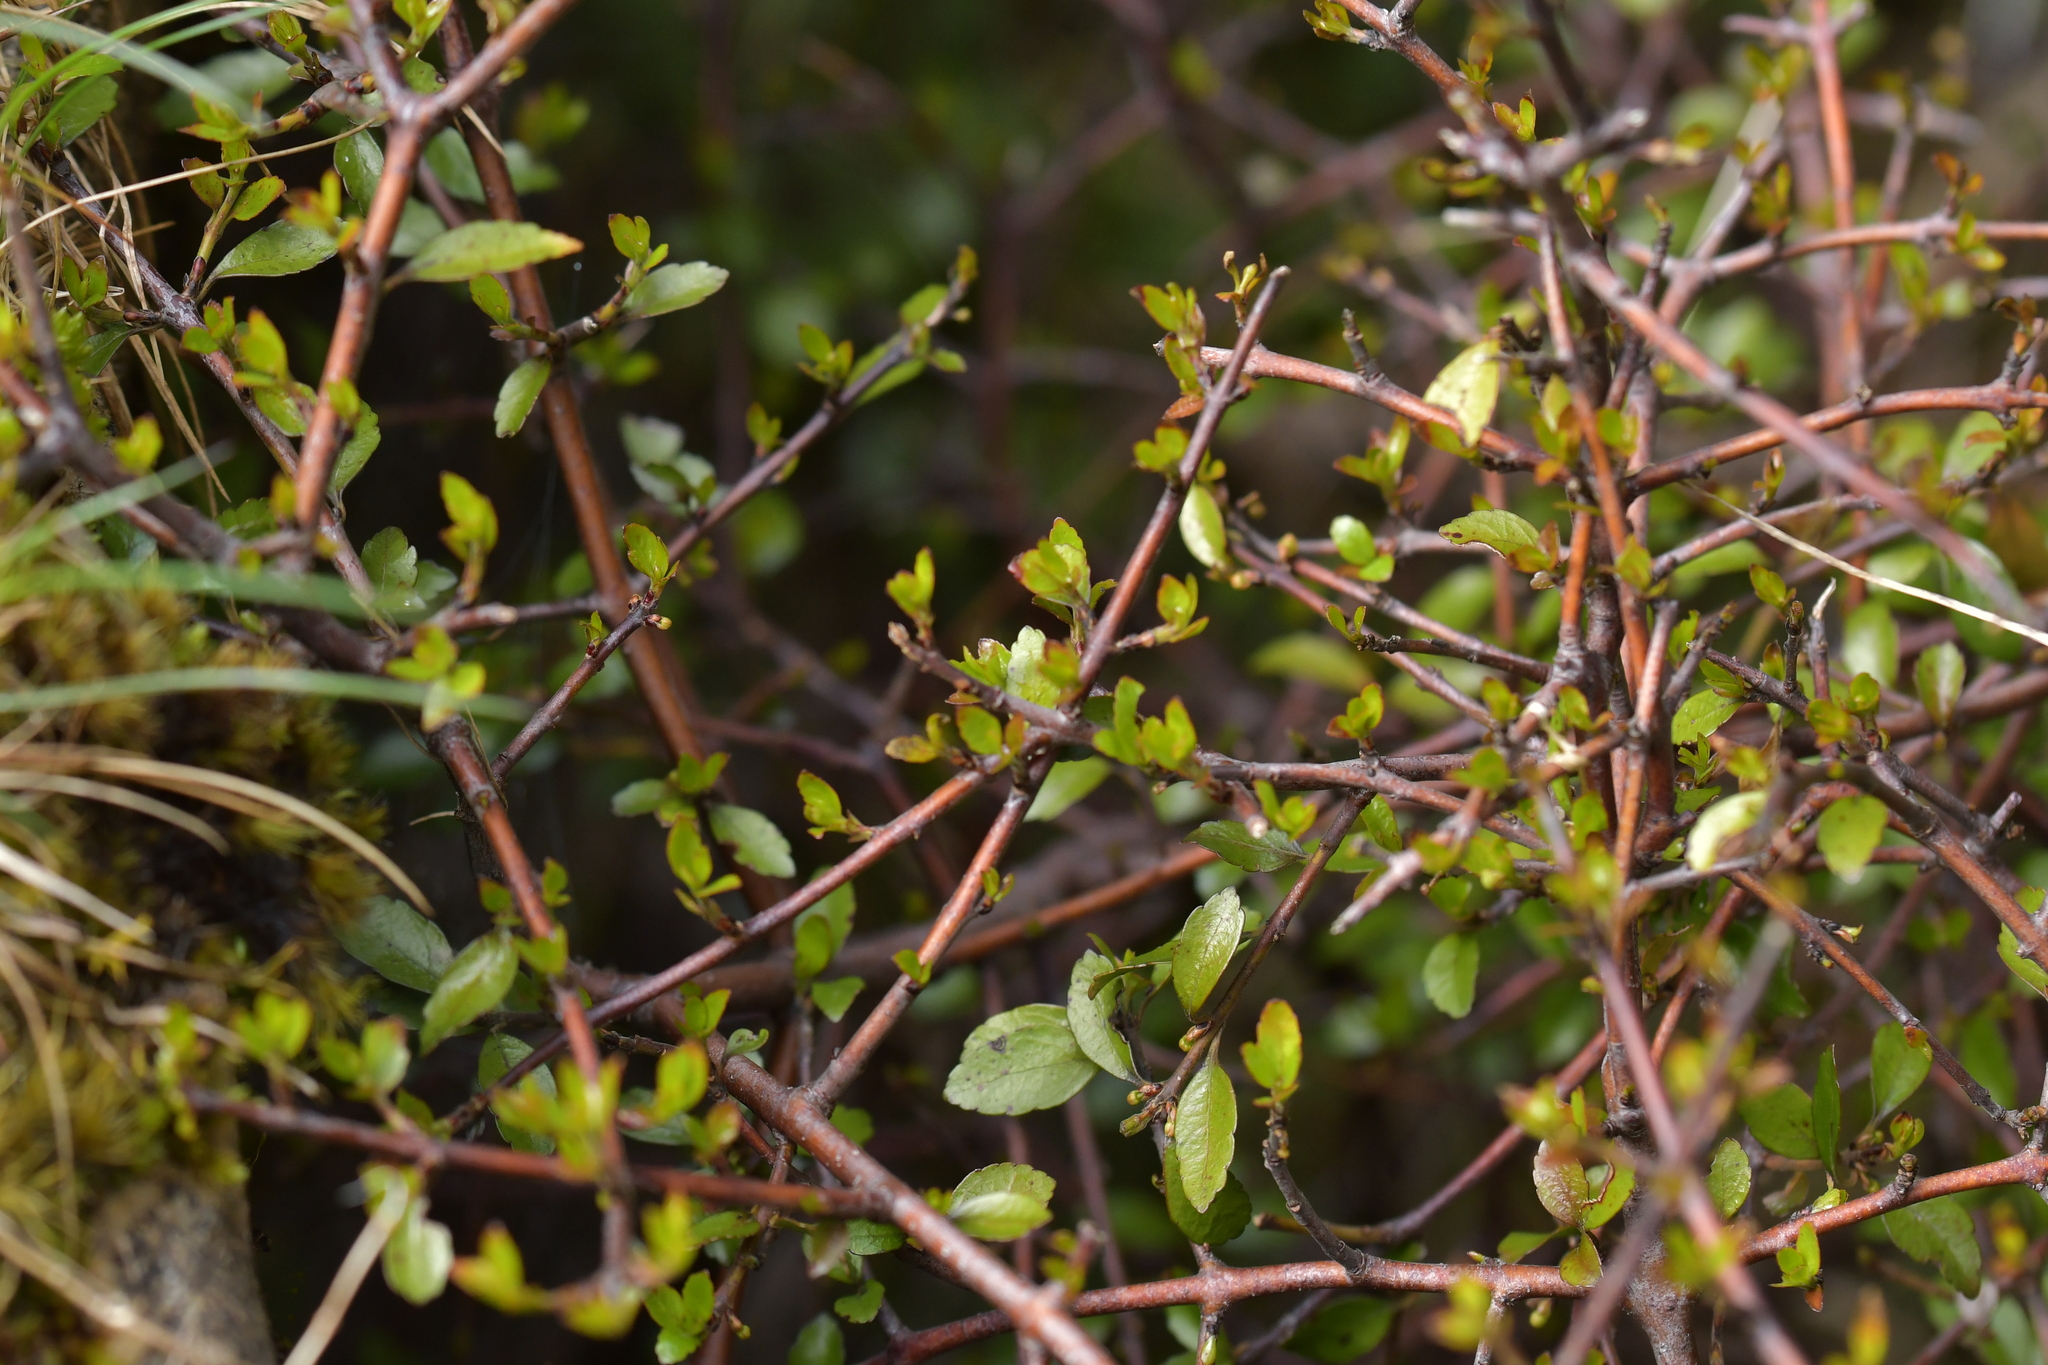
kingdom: Plantae
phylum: Tracheophyta
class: Magnoliopsida
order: Oxalidales
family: Elaeocarpaceae
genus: Aristotelia
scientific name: Aristotelia fruticosa
